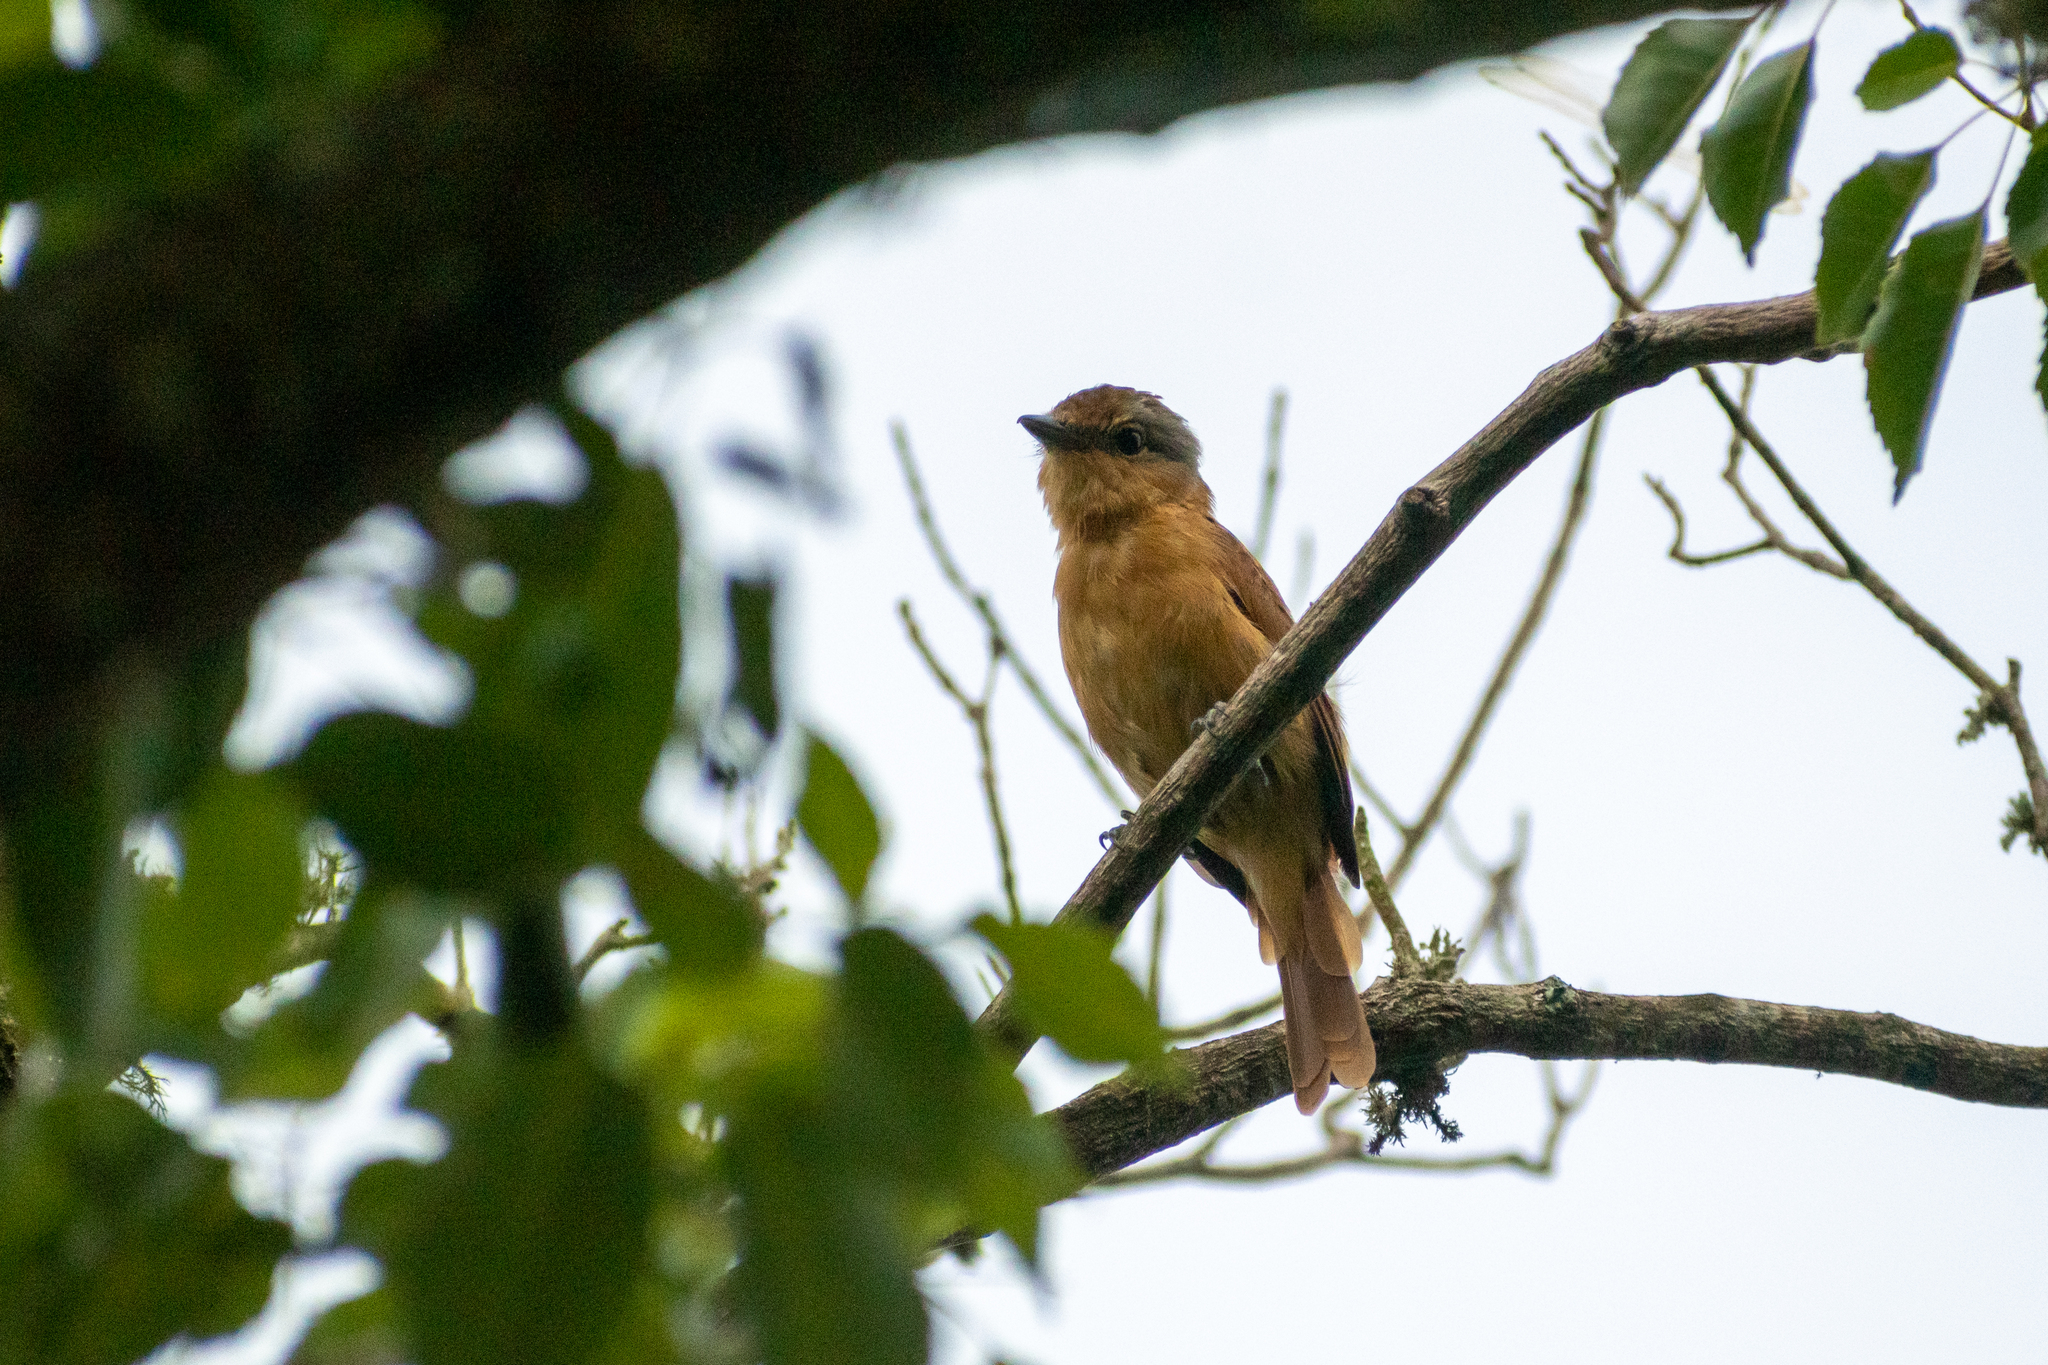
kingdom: Animalia
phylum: Chordata
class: Aves
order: Passeriformes
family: Cotingidae
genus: Pachyramphus
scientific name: Pachyramphus castaneus
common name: Chestnut-crowned becard
